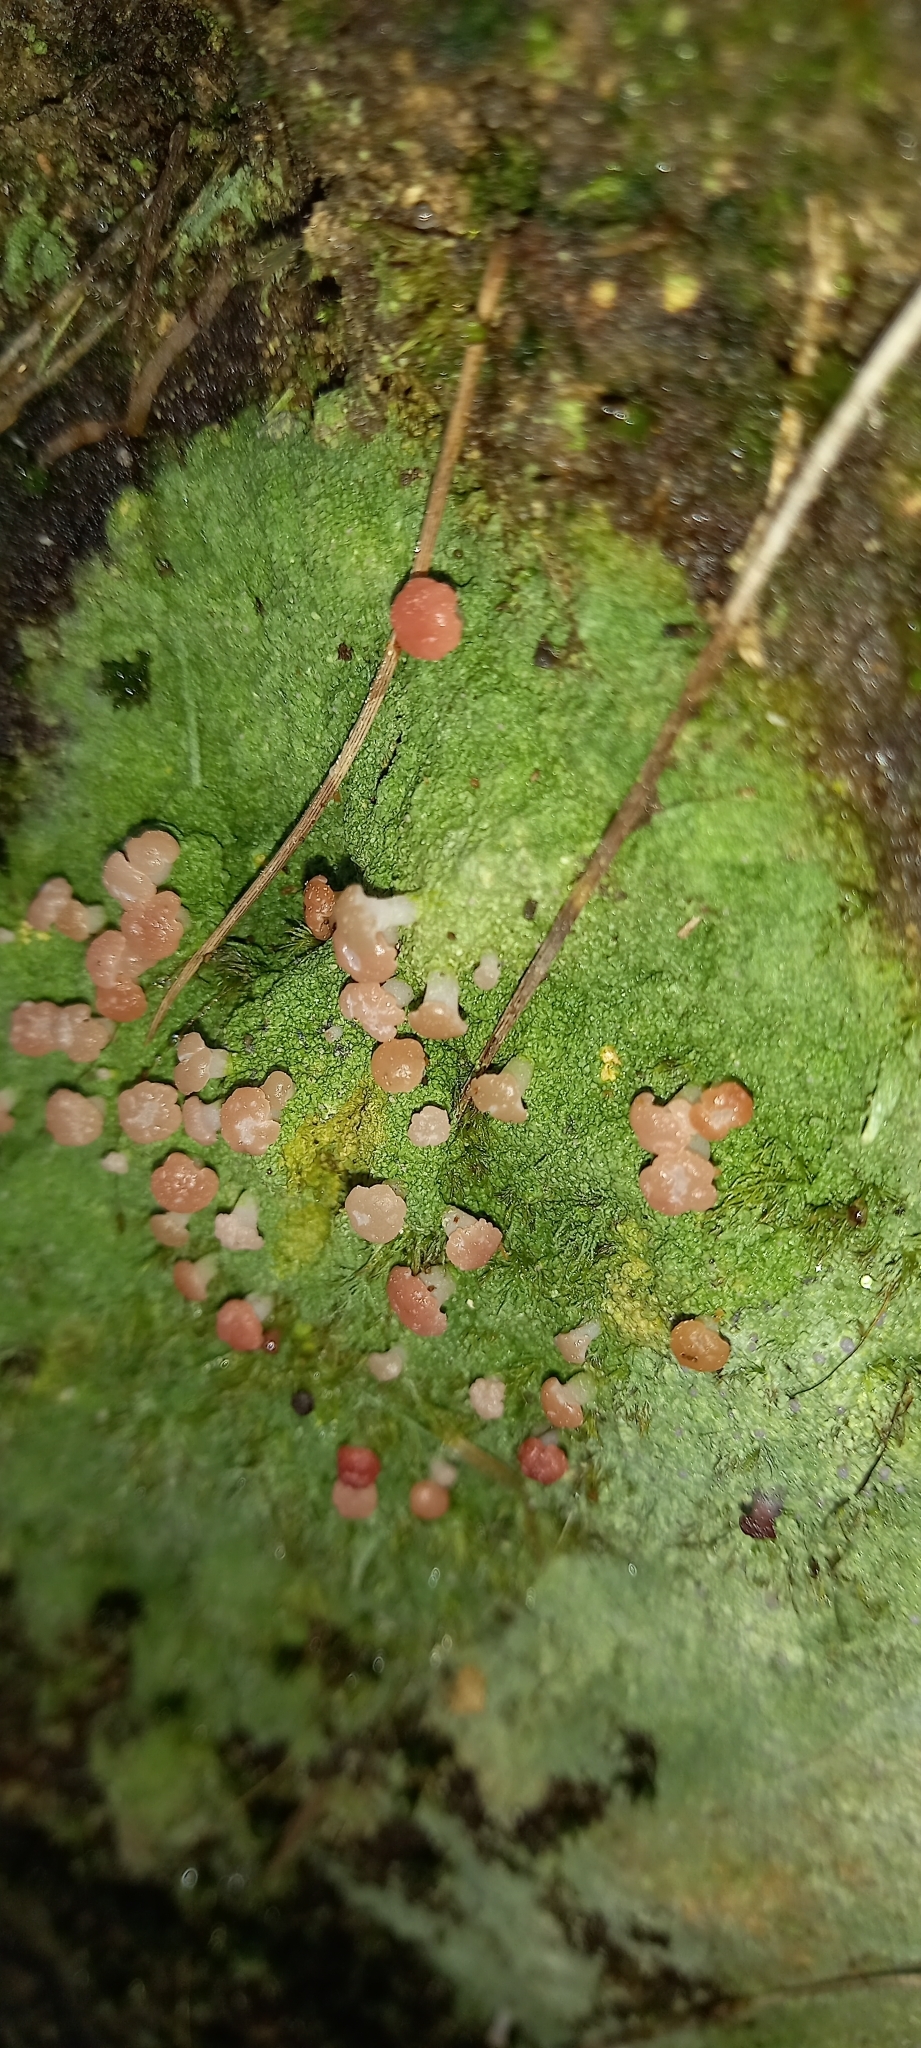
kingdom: Fungi
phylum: Ascomycota
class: Lecanoromycetes
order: Baeomycetales
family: Baeomycetaceae
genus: Baeomyces
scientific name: Baeomyces heteromorphus
